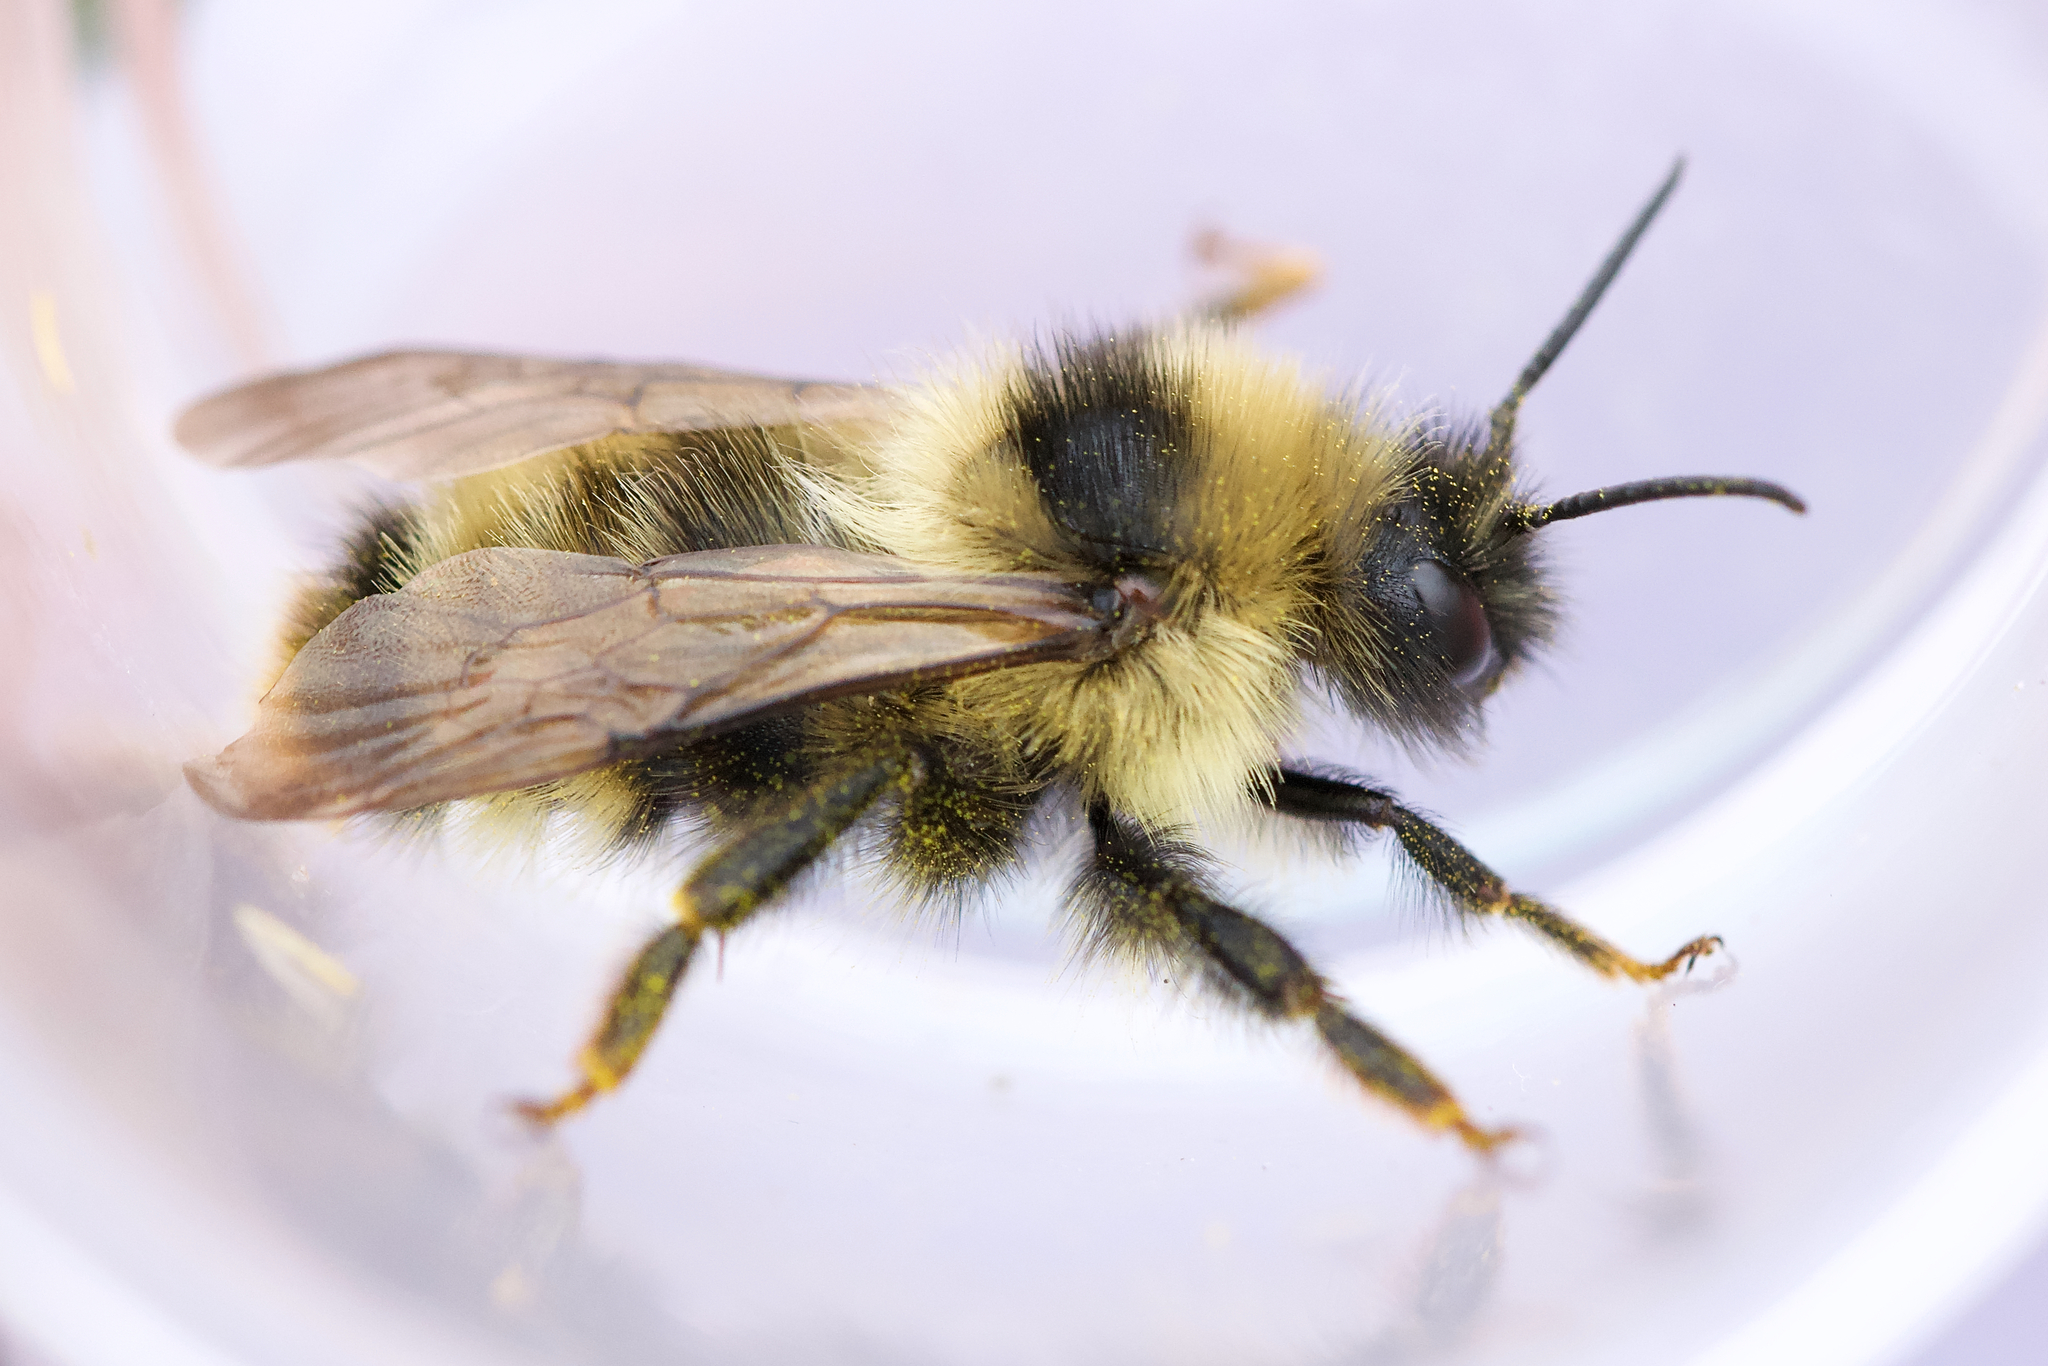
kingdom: Animalia
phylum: Arthropoda
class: Insecta
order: Hymenoptera
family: Apidae
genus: Bombus
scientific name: Bombus flavidus
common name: Fernald cuckoo bumble bee
